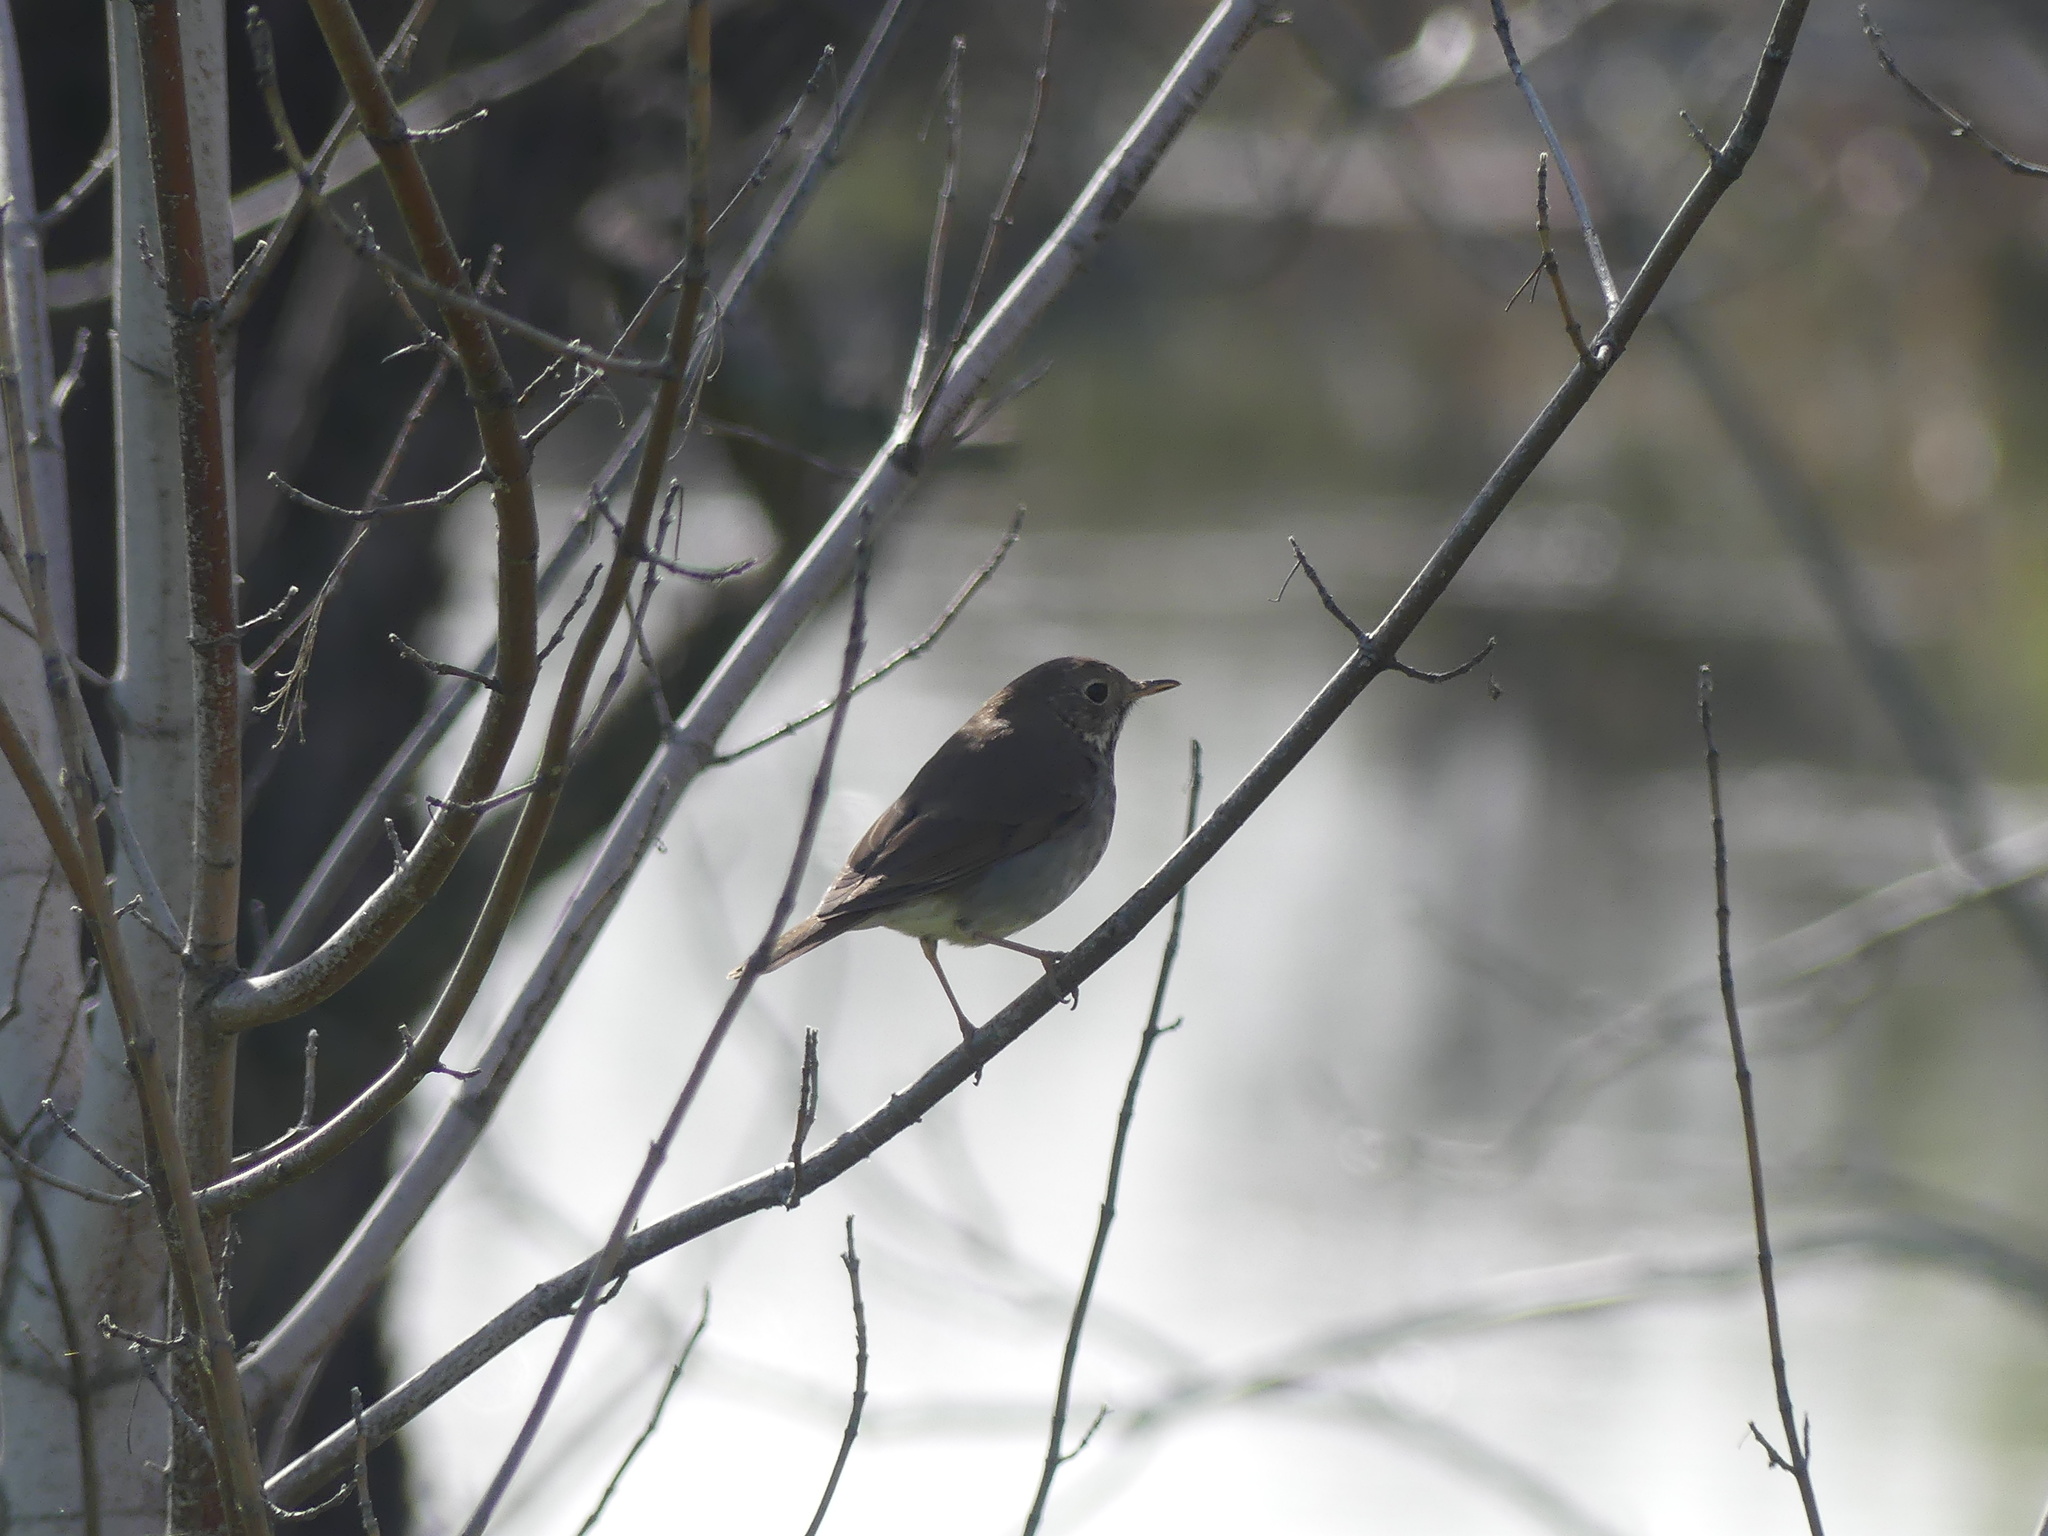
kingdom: Animalia
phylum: Chordata
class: Aves
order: Passeriformes
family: Turdidae
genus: Catharus
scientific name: Catharus guttatus
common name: Hermit thrush
